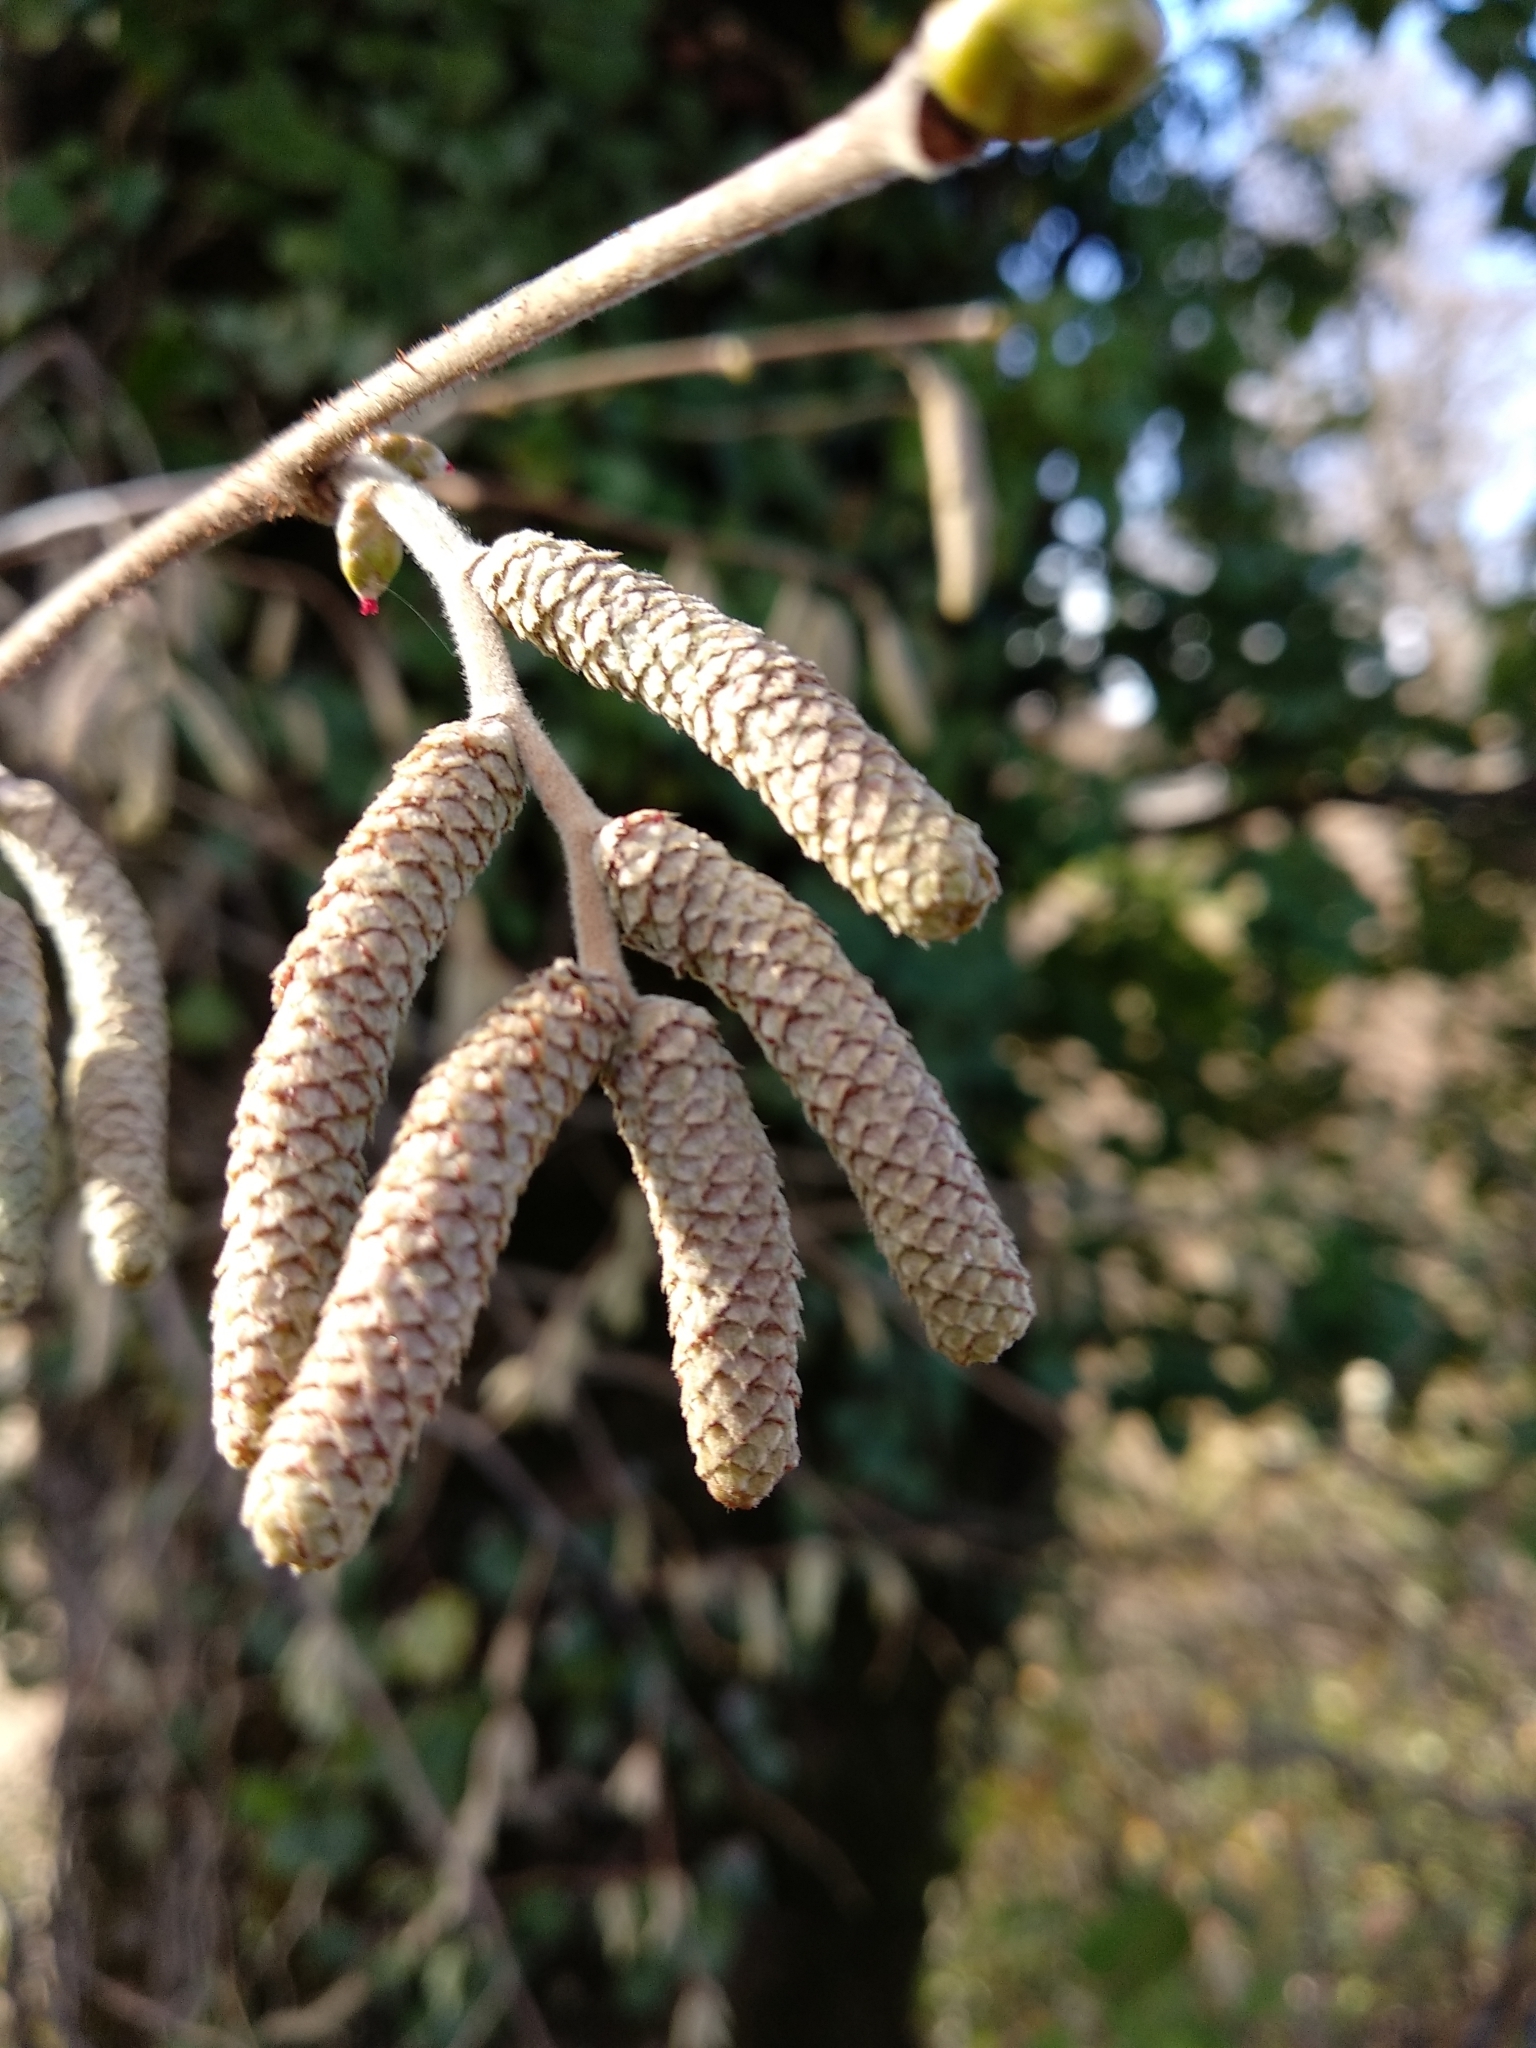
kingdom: Plantae
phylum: Tracheophyta
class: Magnoliopsida
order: Fagales
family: Betulaceae
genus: Corylus
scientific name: Corylus avellana
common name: European hazel
